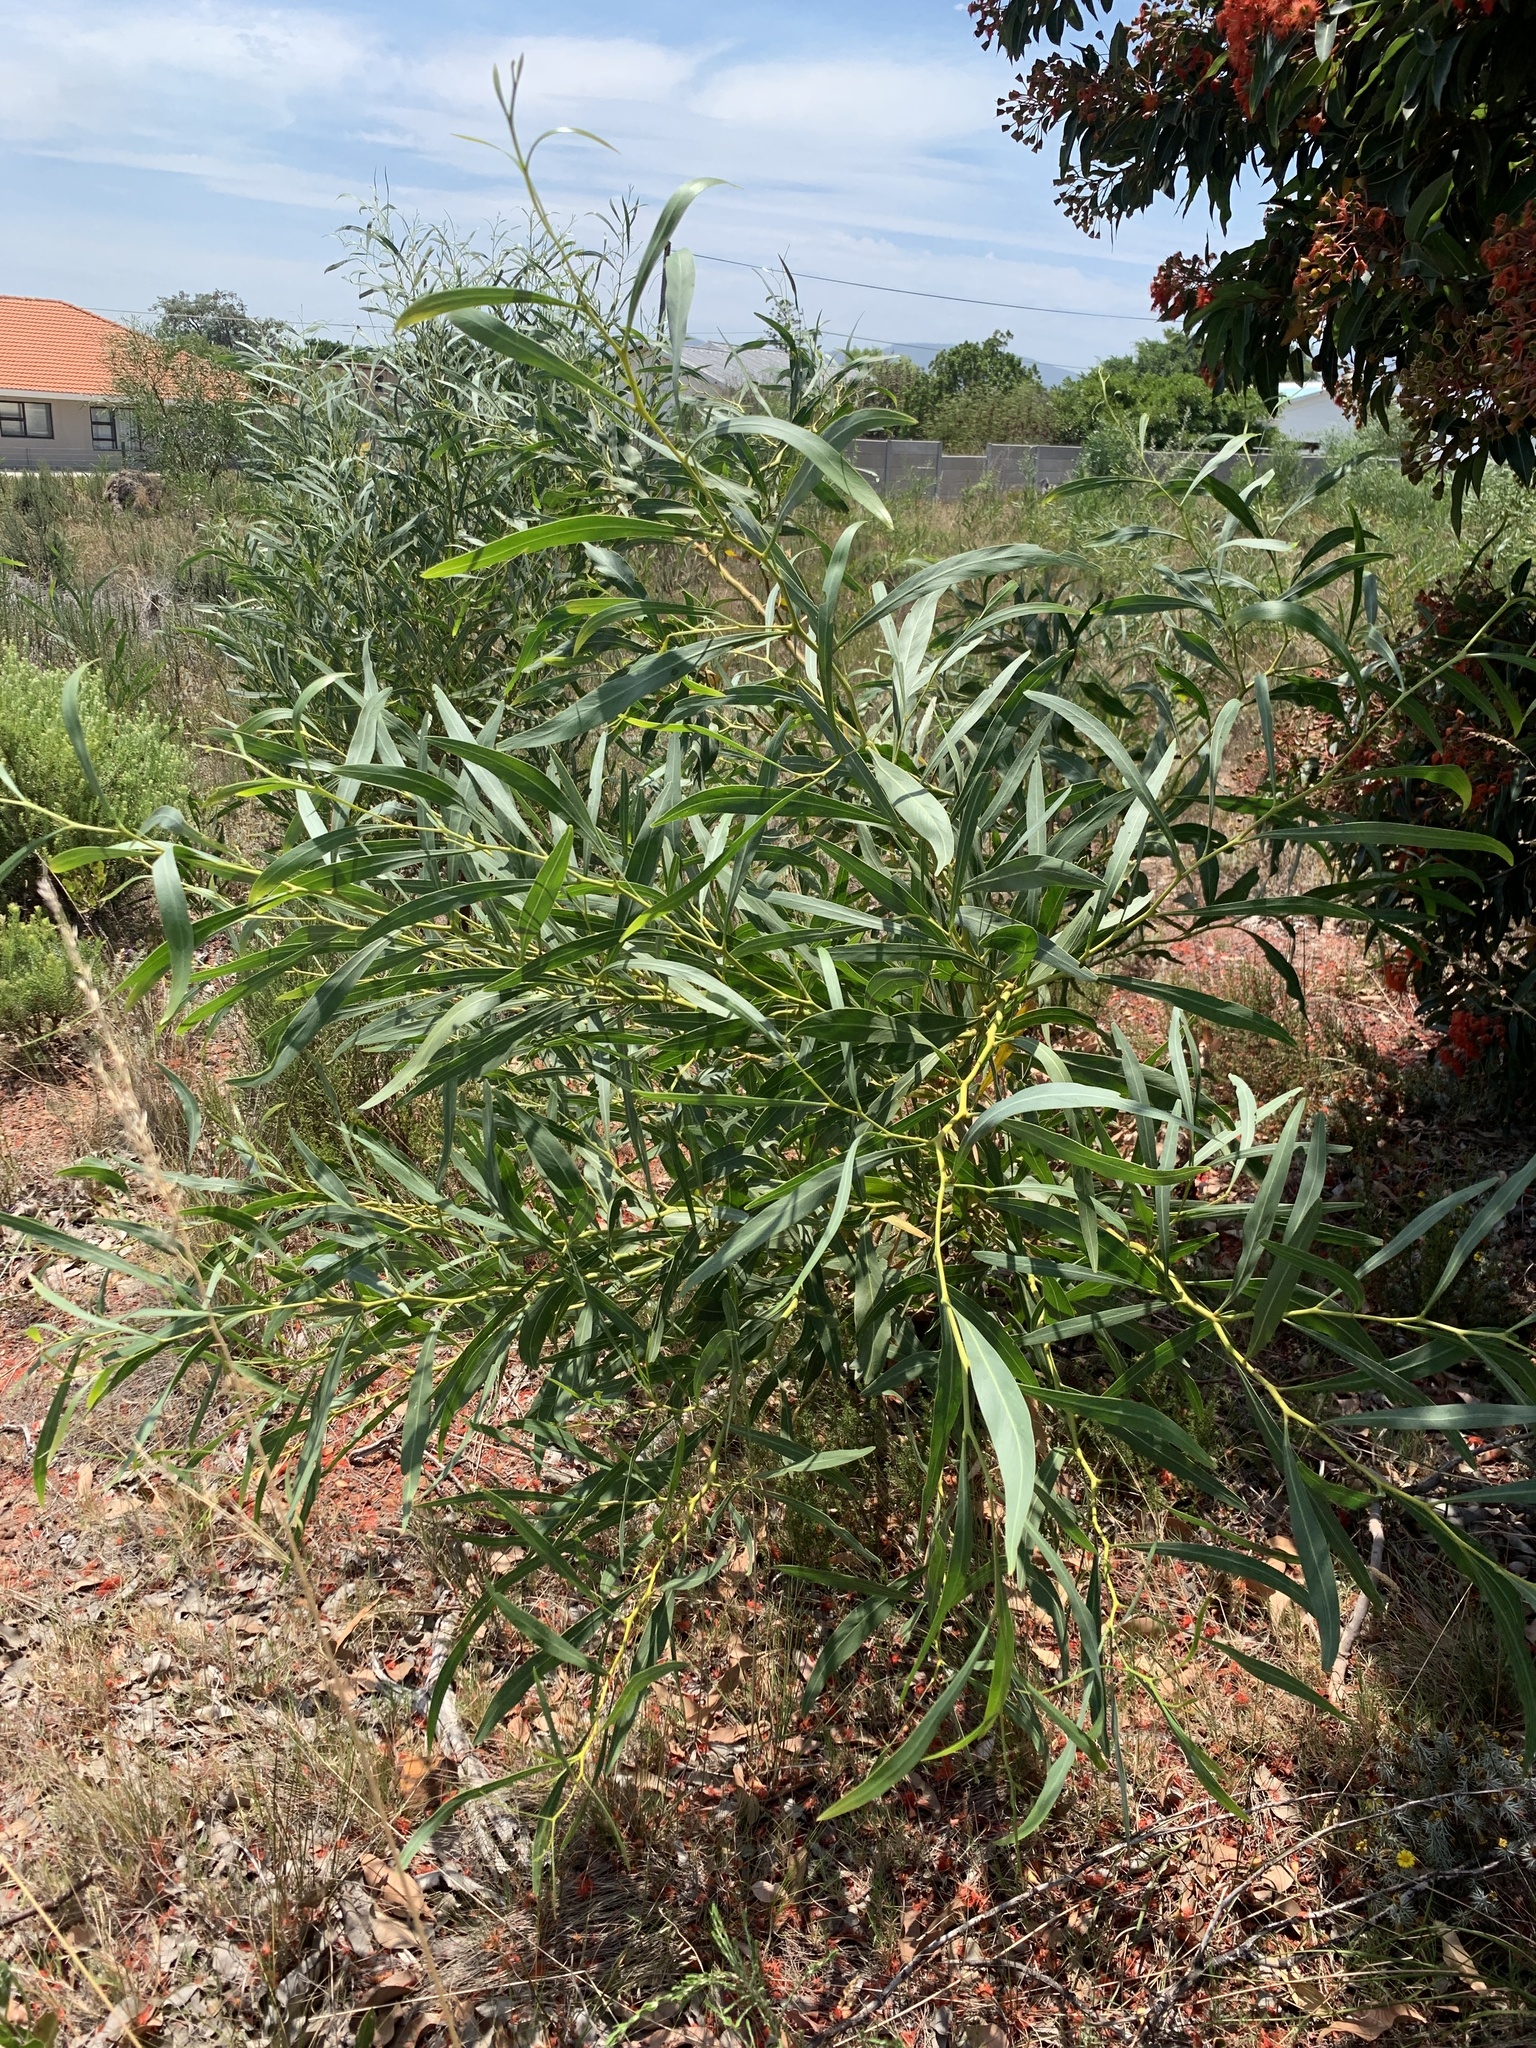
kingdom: Plantae
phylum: Tracheophyta
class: Magnoliopsida
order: Fabales
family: Fabaceae
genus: Acacia
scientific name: Acacia saligna
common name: Orange wattle
